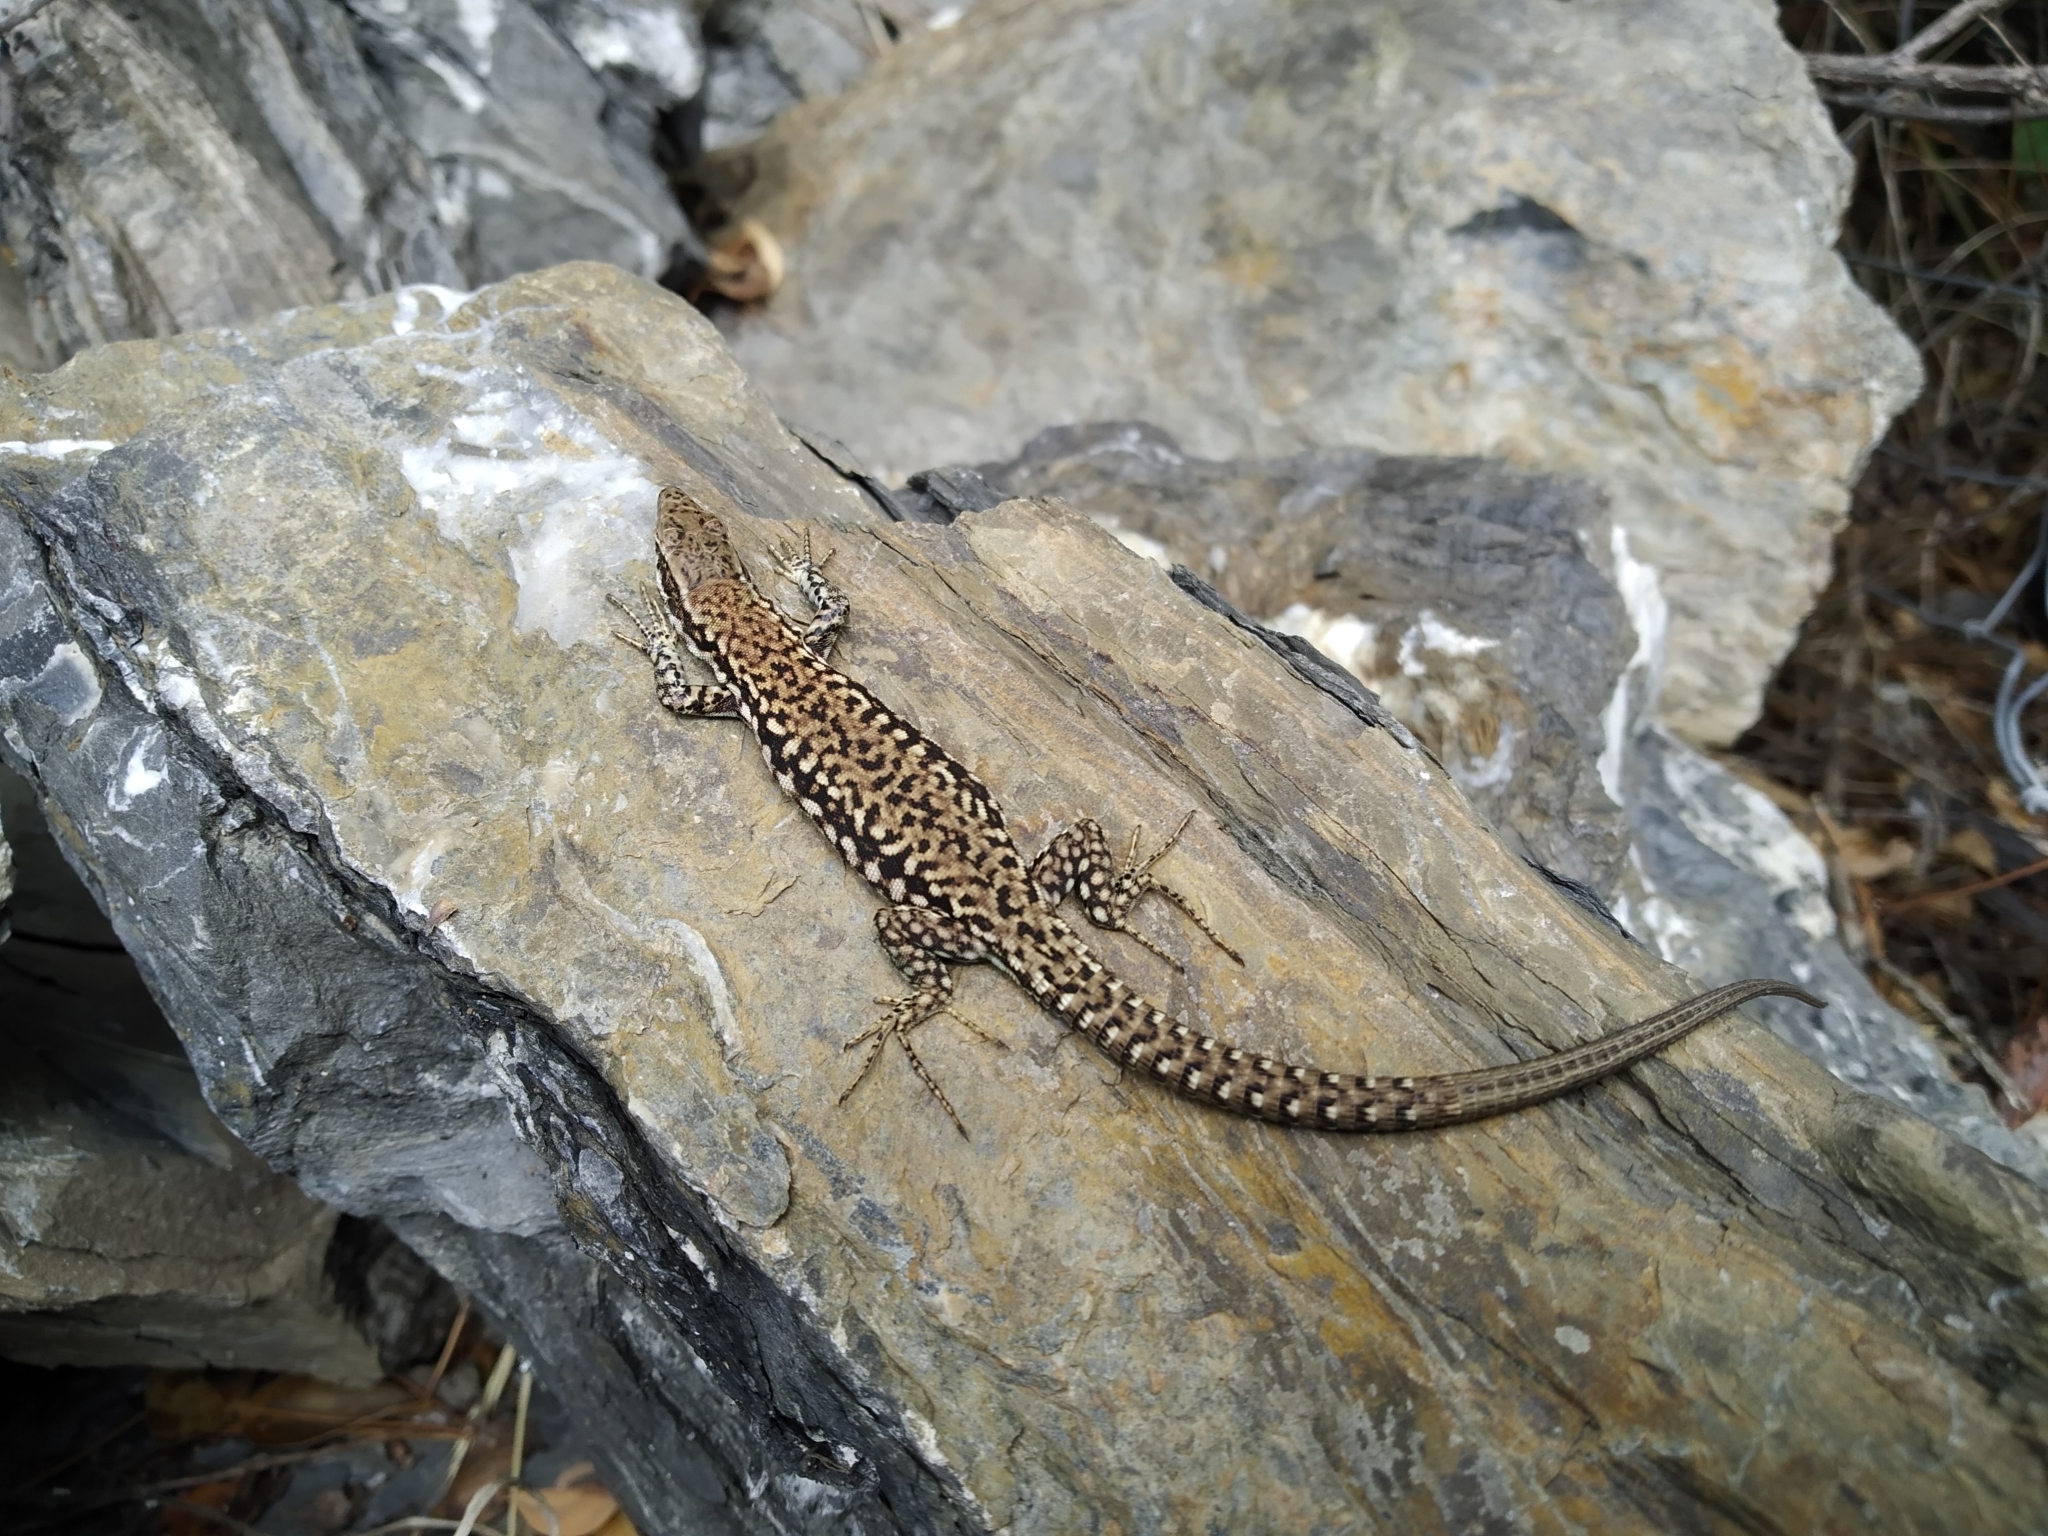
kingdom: Animalia
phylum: Chordata
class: Squamata
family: Lacertidae
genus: Podarcis
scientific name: Podarcis muralis
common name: Common wall lizard
